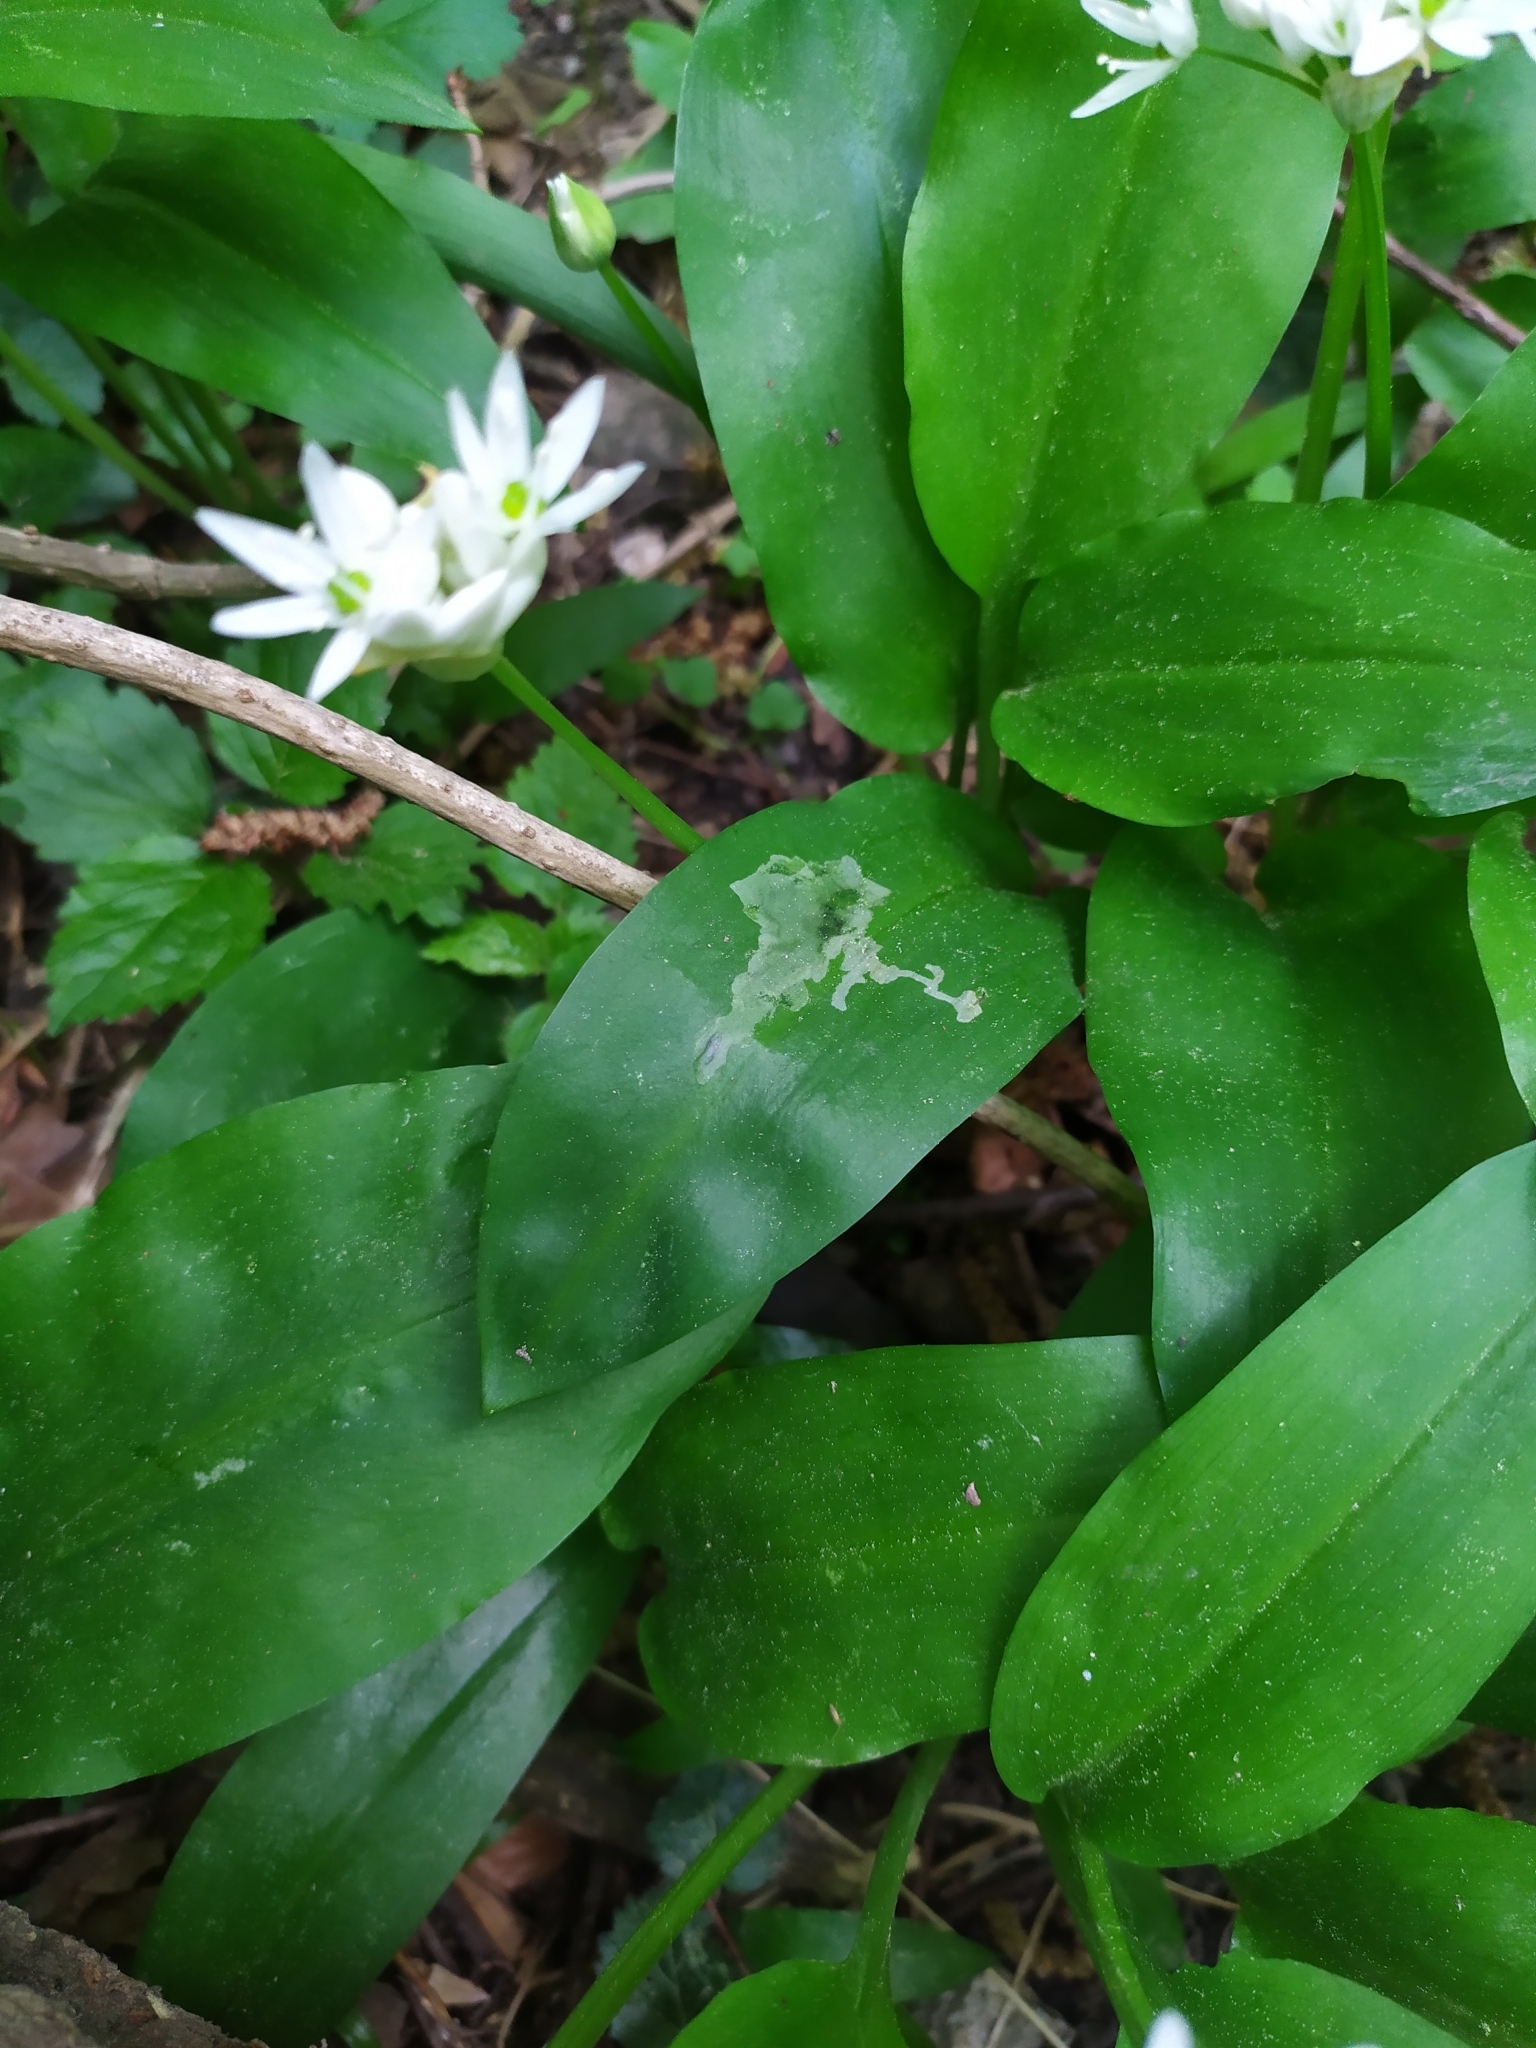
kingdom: Animalia
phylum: Arthropoda
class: Insecta
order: Diptera
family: Syrphidae
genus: Cheilosia
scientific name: Cheilosia fasciata
